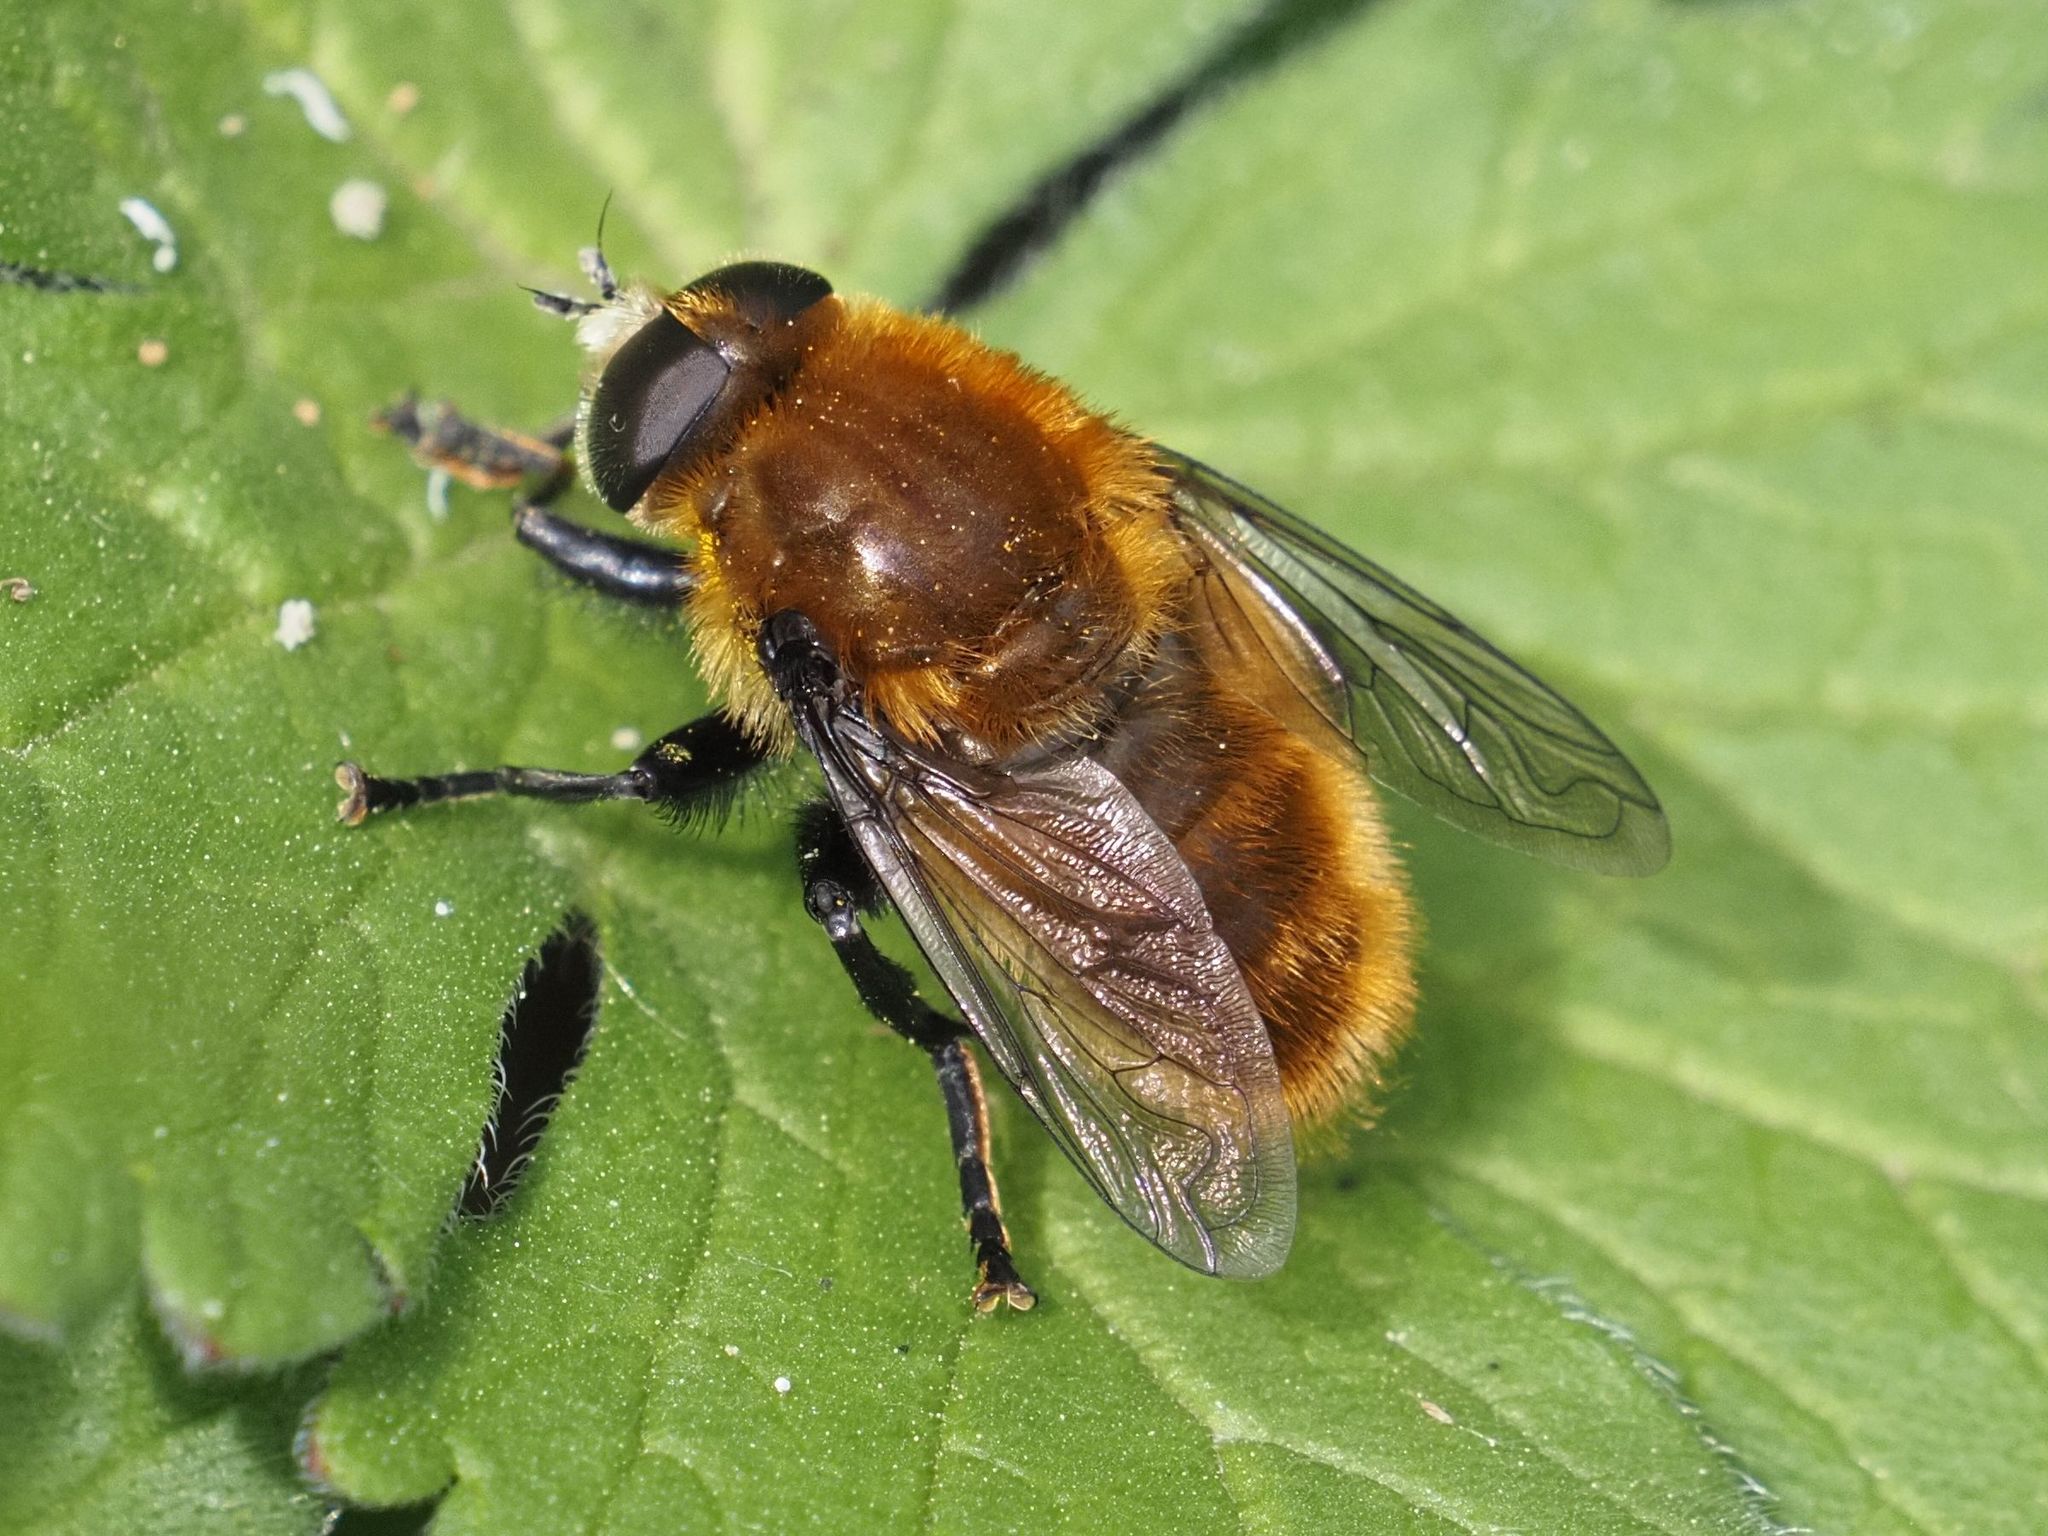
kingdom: Animalia
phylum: Arthropoda
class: Insecta
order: Diptera
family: Syrphidae
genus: Merodon
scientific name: Merodon equestris
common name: Greater bulb-fly
